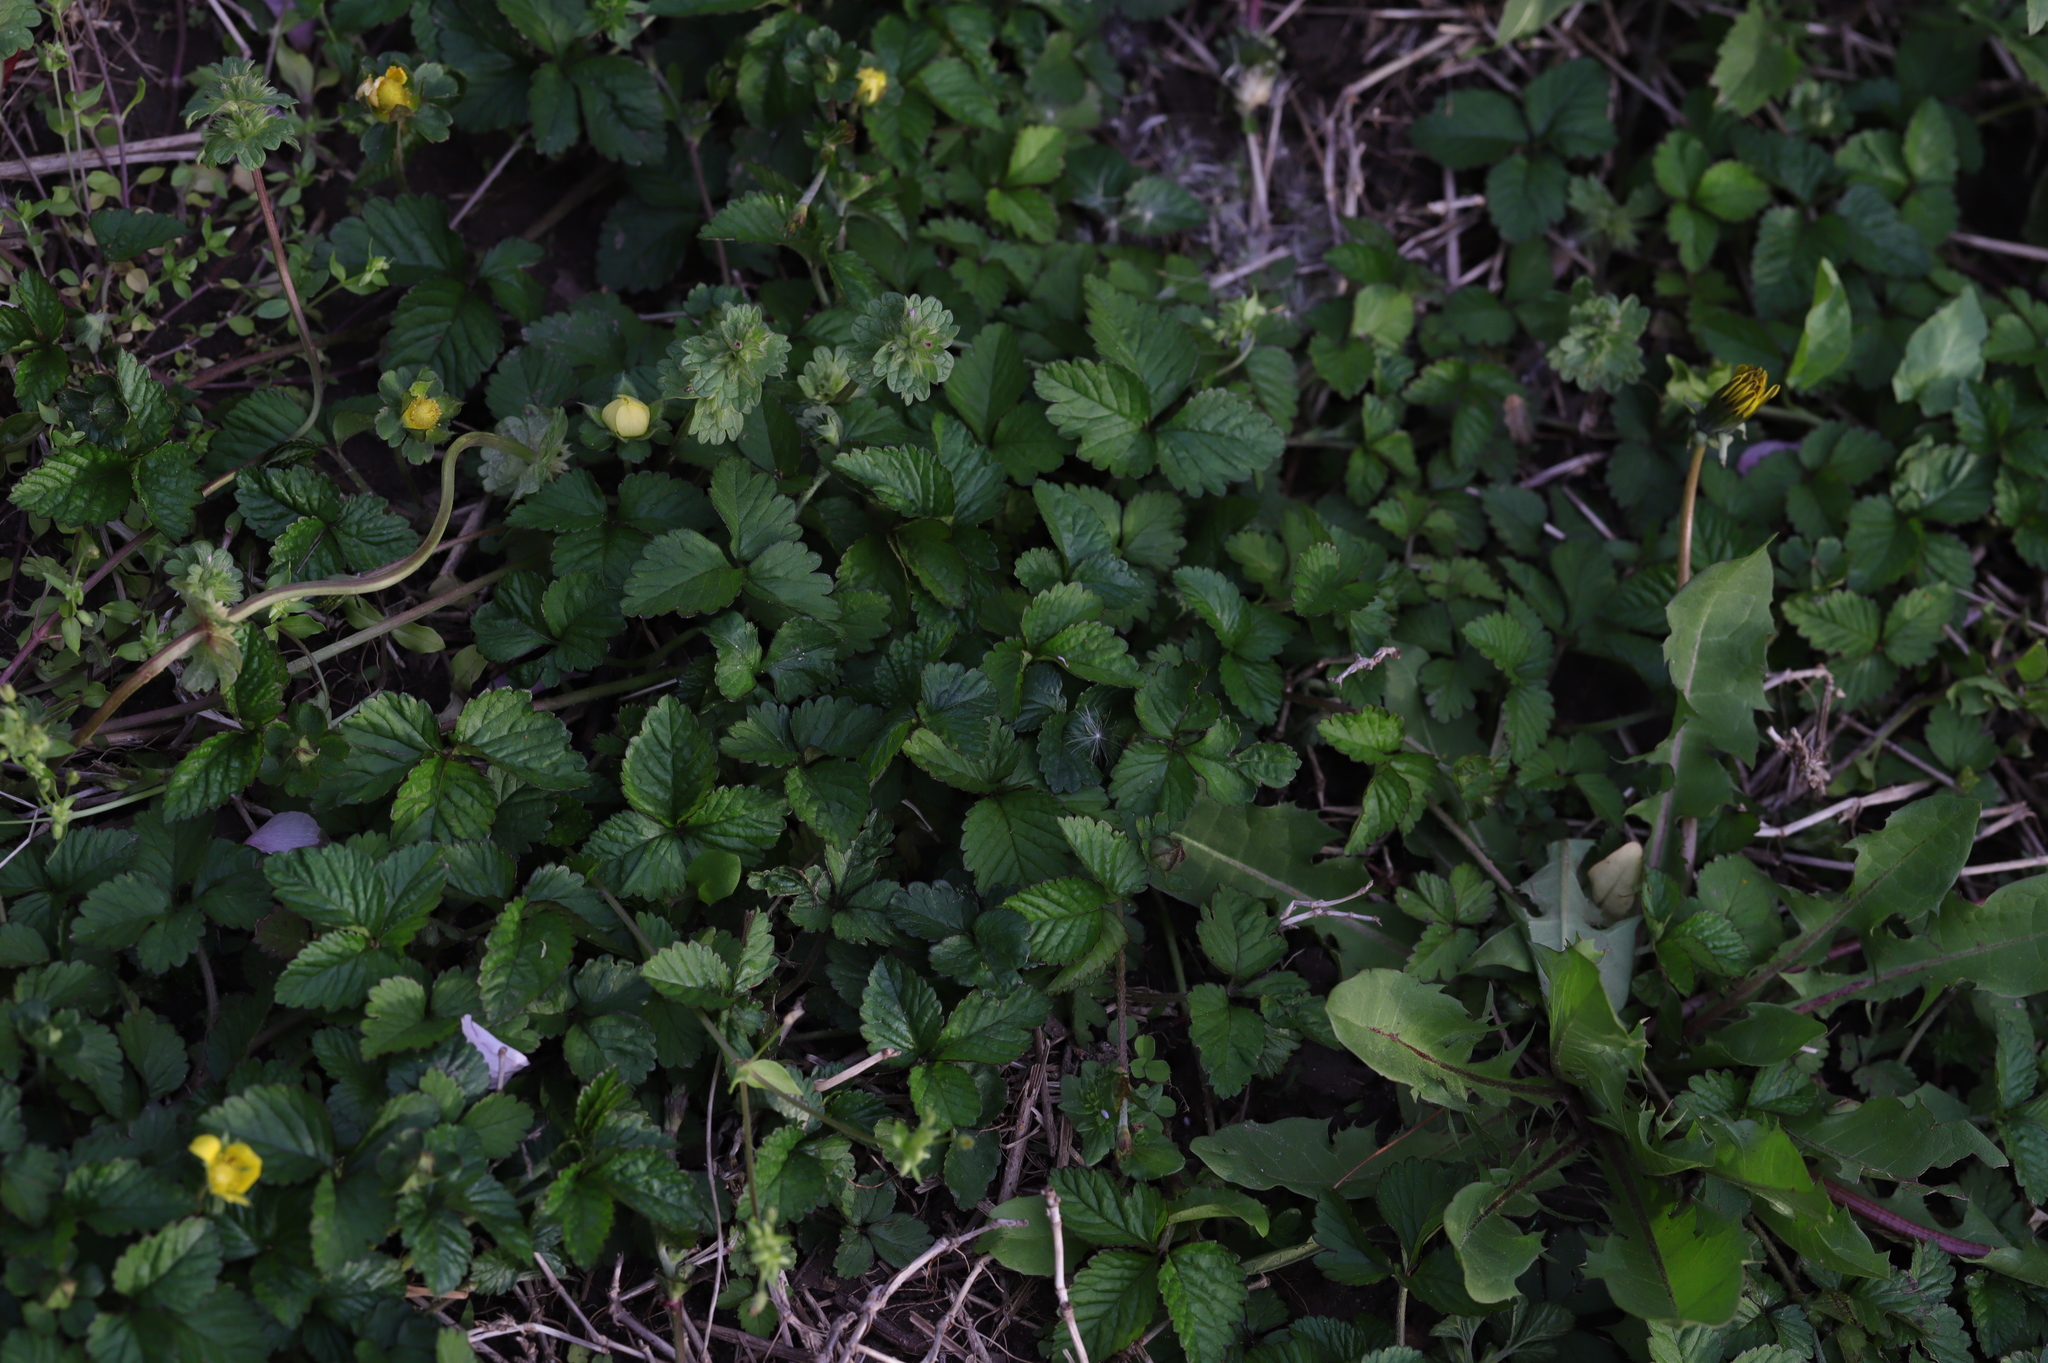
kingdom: Plantae
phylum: Tracheophyta
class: Magnoliopsida
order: Rosales
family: Rosaceae
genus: Potentilla
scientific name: Potentilla indica
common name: Yellow-flowered strawberry
